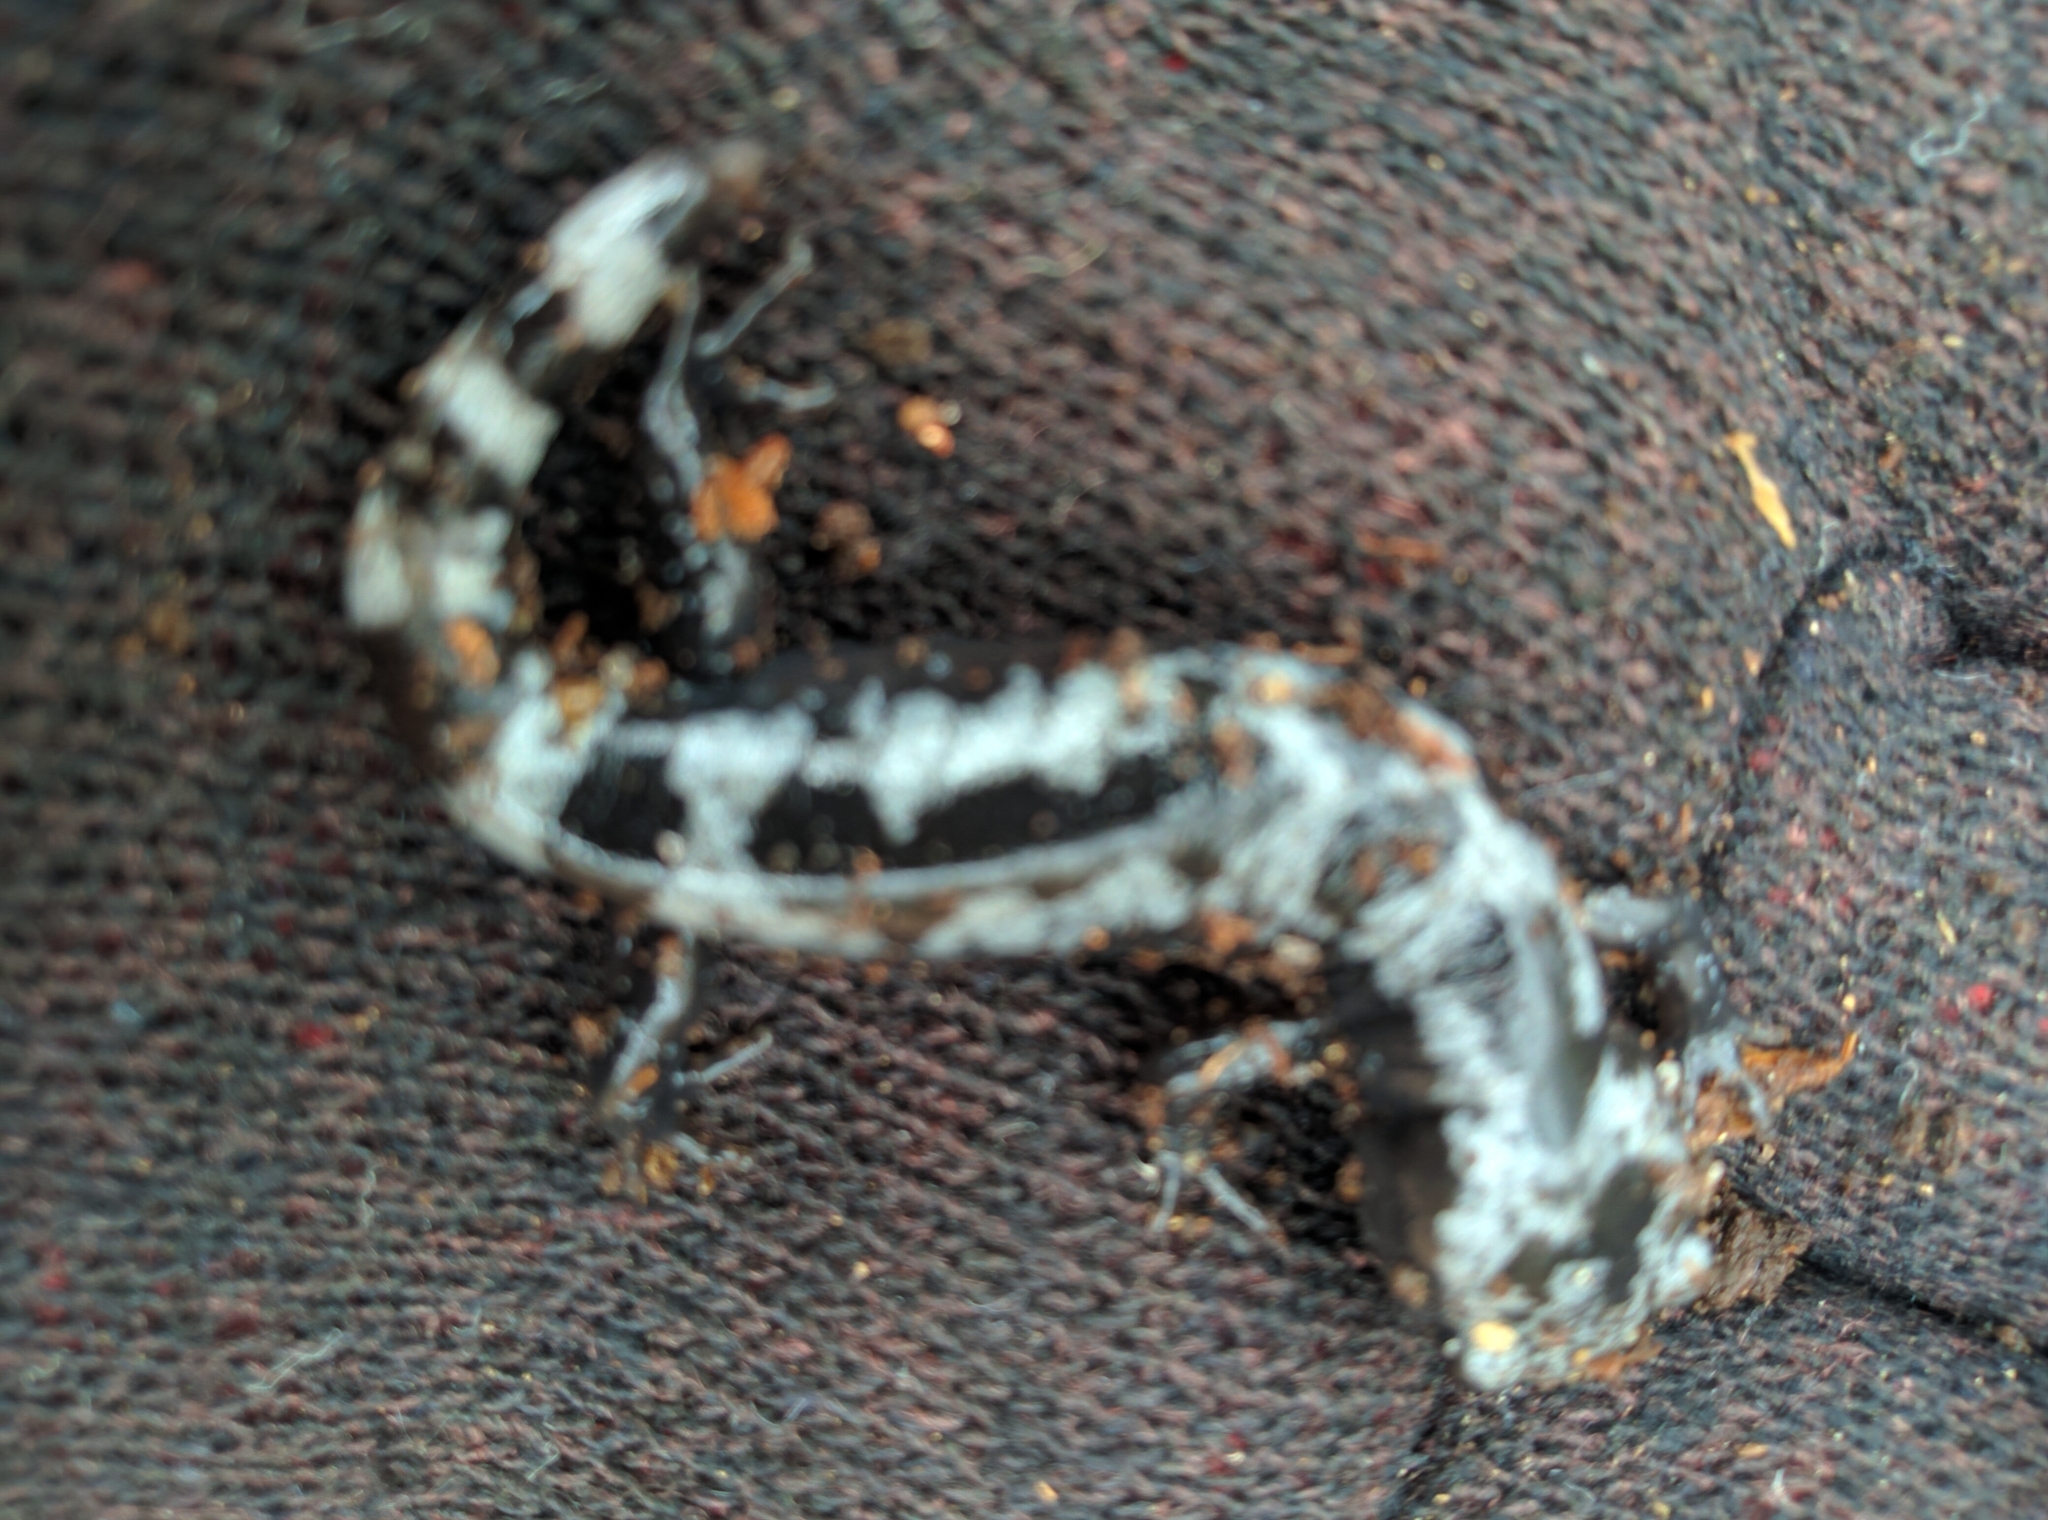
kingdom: Animalia
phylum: Chordata
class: Amphibia
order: Caudata
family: Ambystomatidae
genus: Ambystoma
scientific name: Ambystoma opacum
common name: Marbled salamander
